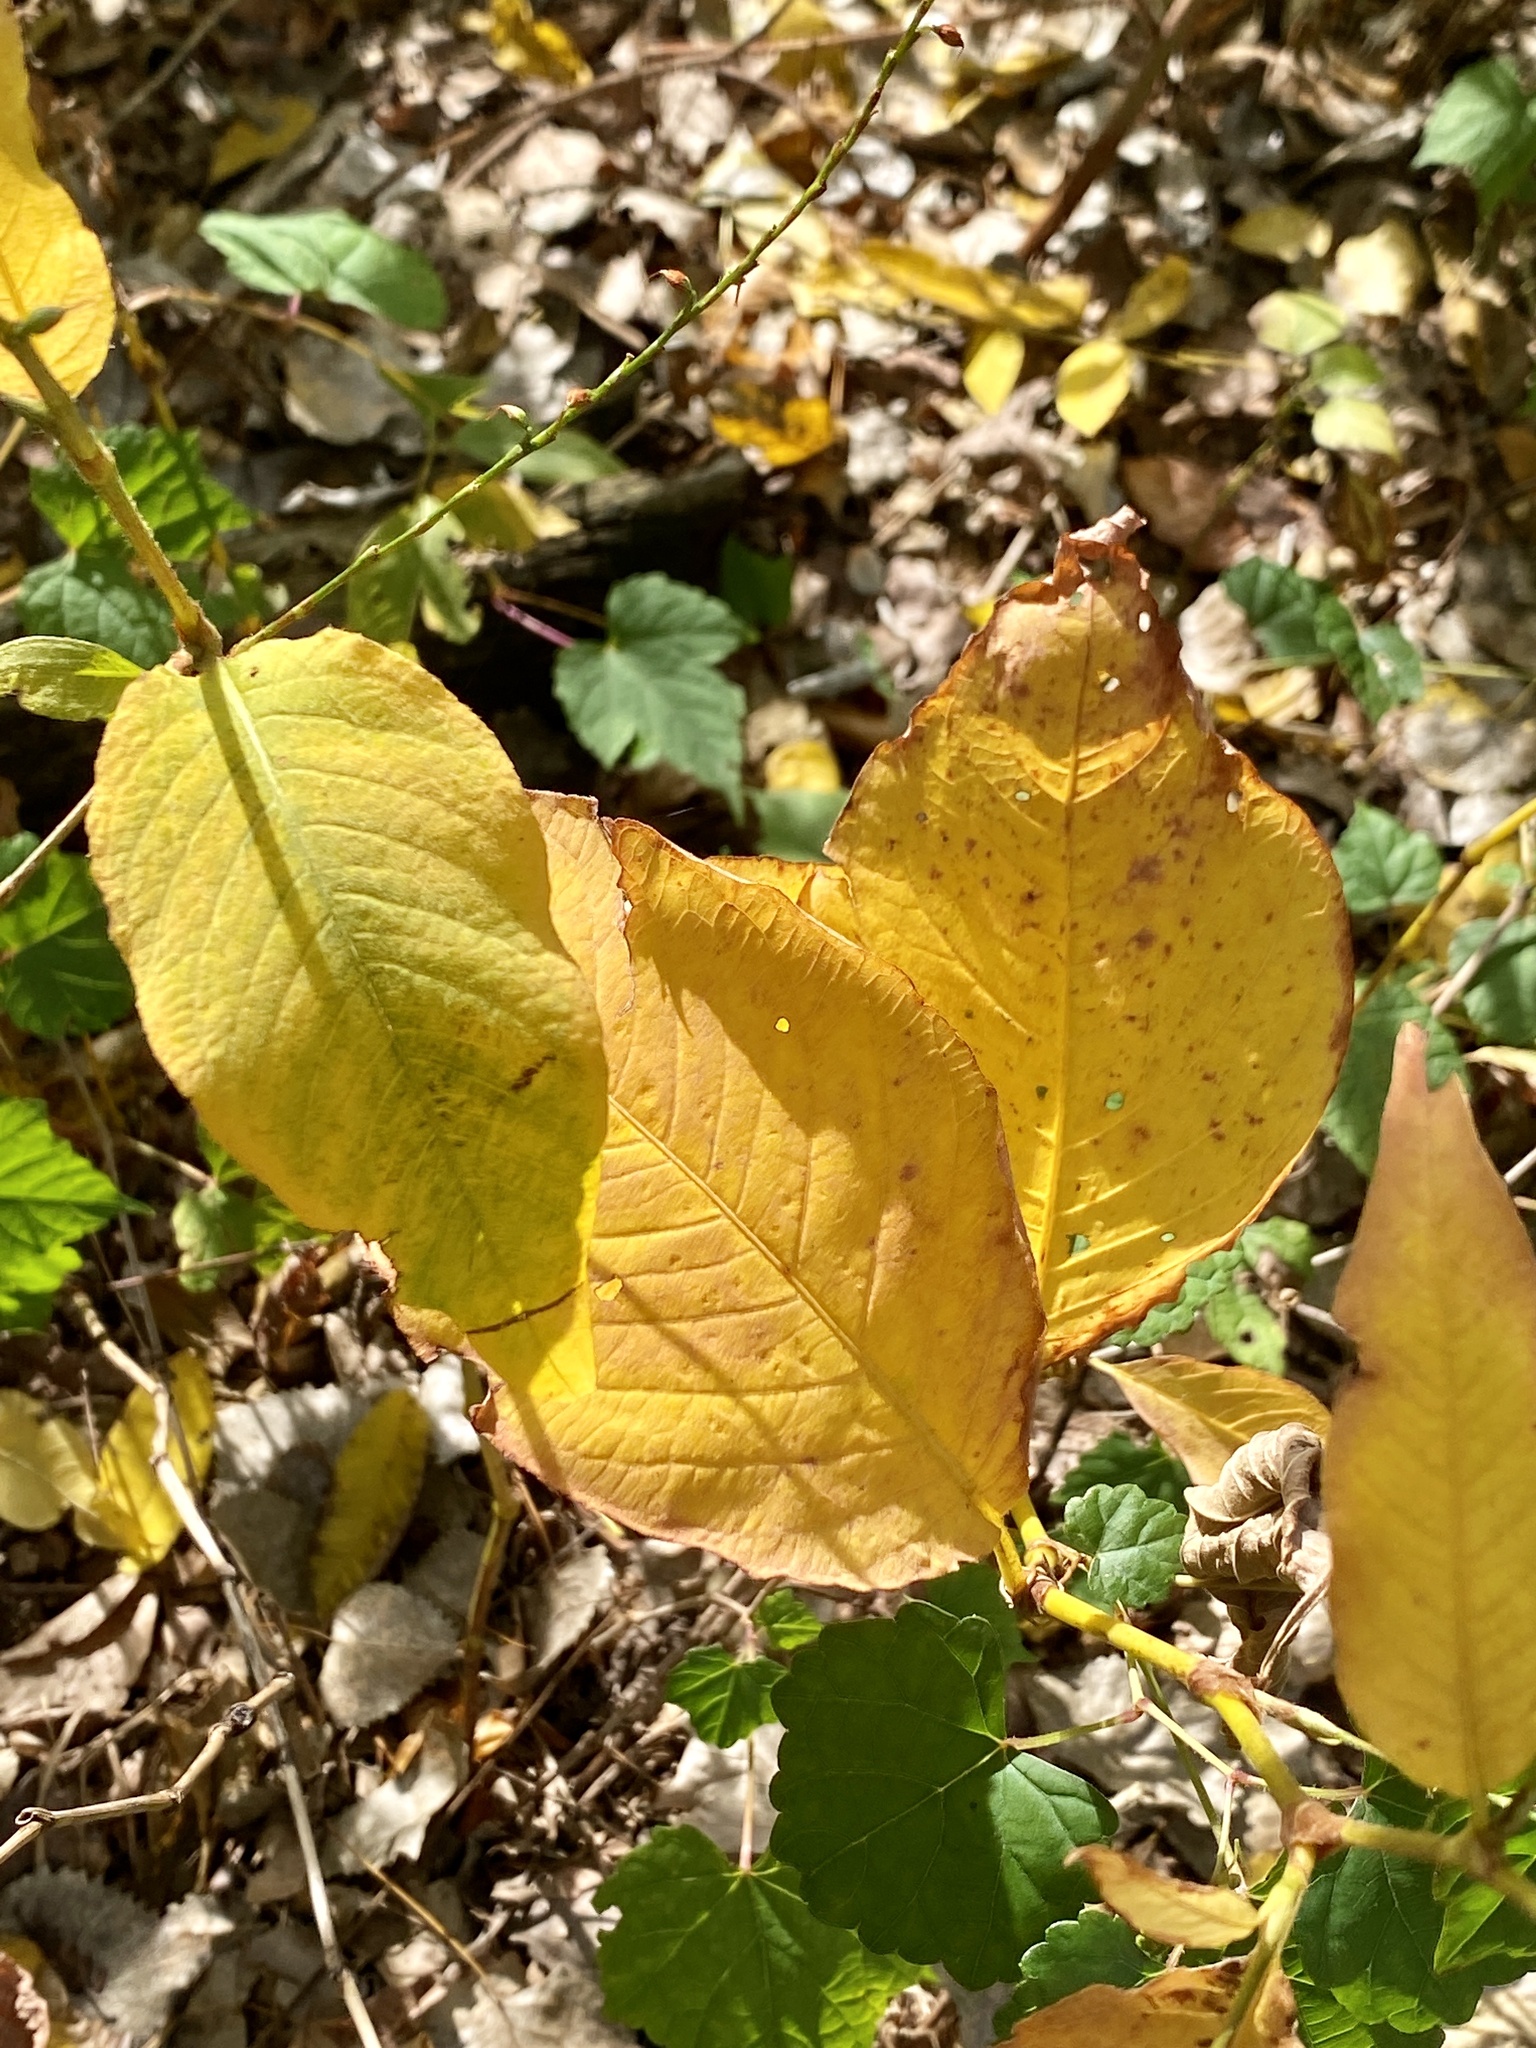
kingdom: Plantae
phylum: Tracheophyta
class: Magnoliopsida
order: Caryophyllales
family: Polygonaceae
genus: Persicaria
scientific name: Persicaria virginiana
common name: Jumpseed
